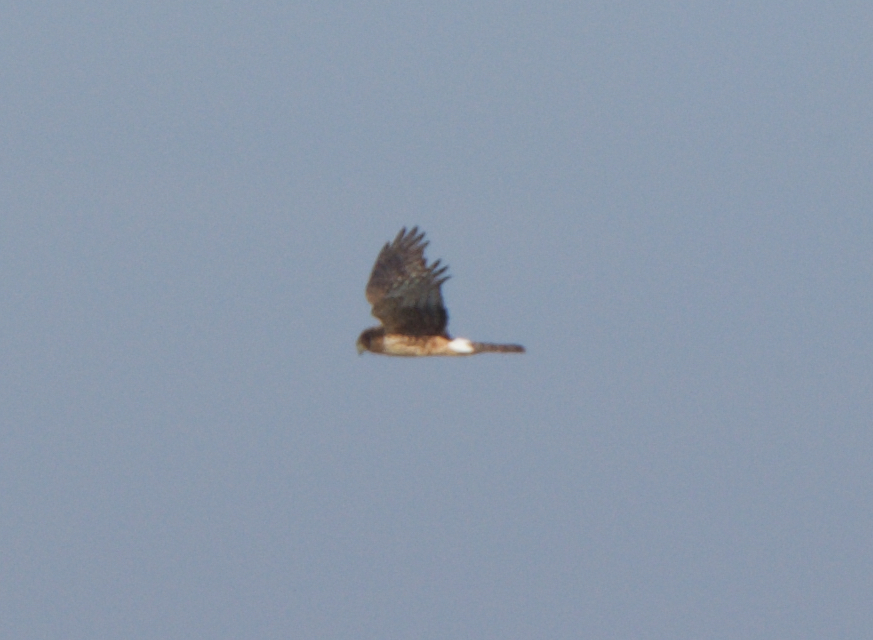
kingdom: Animalia
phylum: Chordata
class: Aves
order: Accipitriformes
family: Accipitridae
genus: Circus
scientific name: Circus cyaneus
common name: Hen harrier
